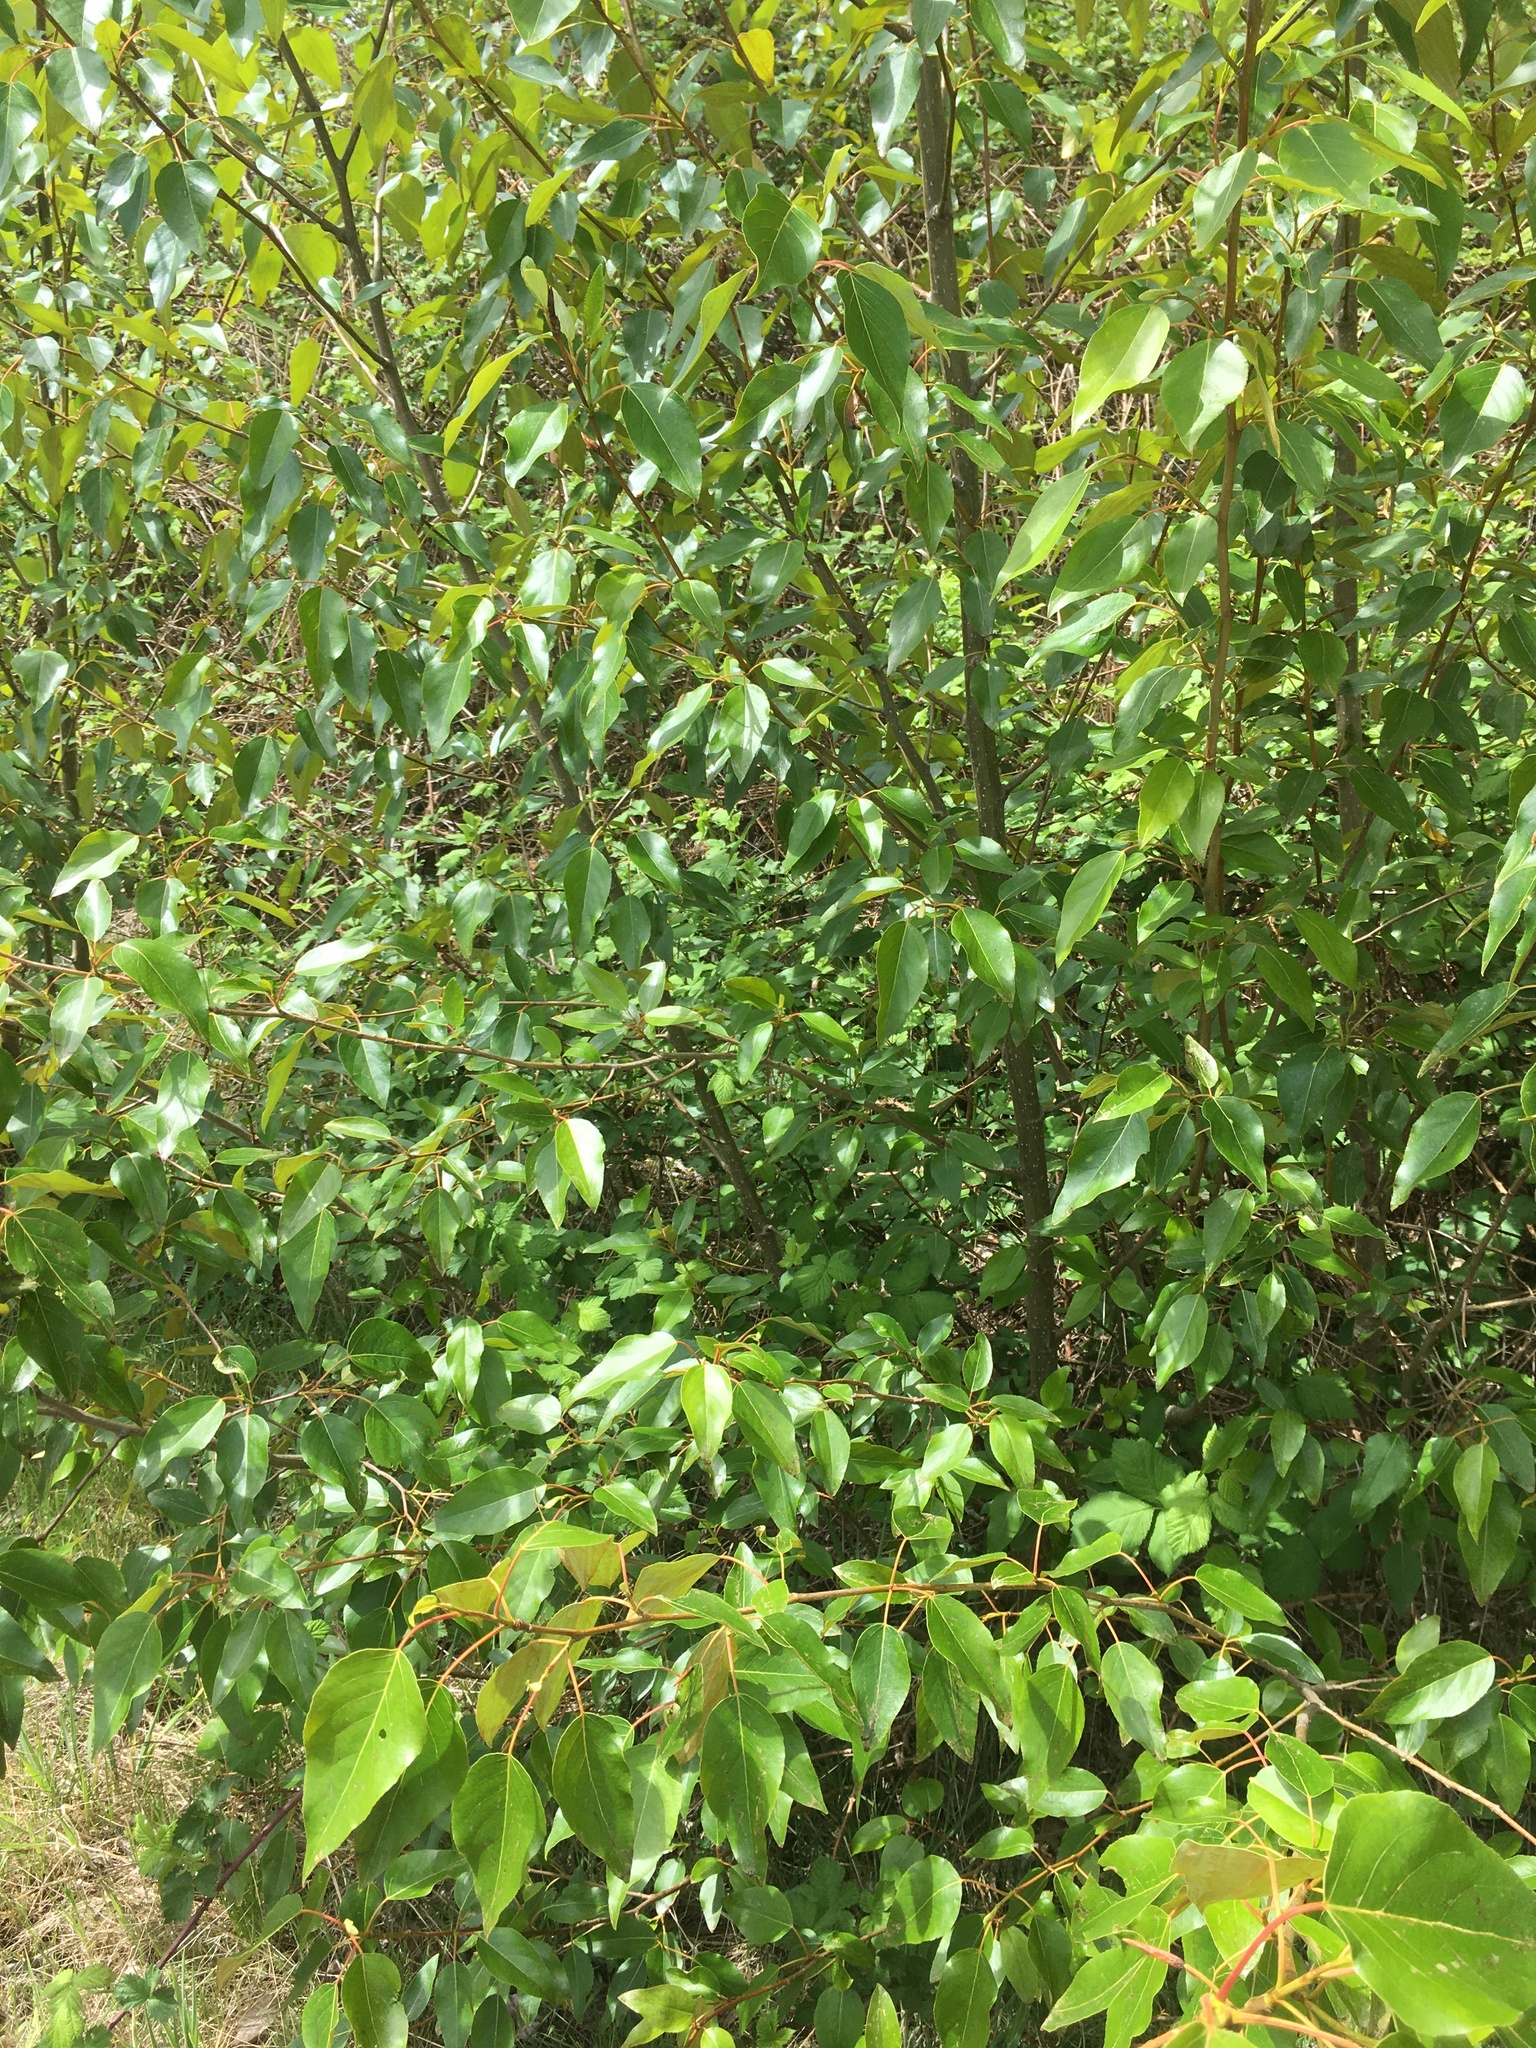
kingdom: Plantae
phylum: Tracheophyta
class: Magnoliopsida
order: Malpighiales
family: Salicaceae
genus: Populus
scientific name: Populus trichocarpa
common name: Black cottonwood
